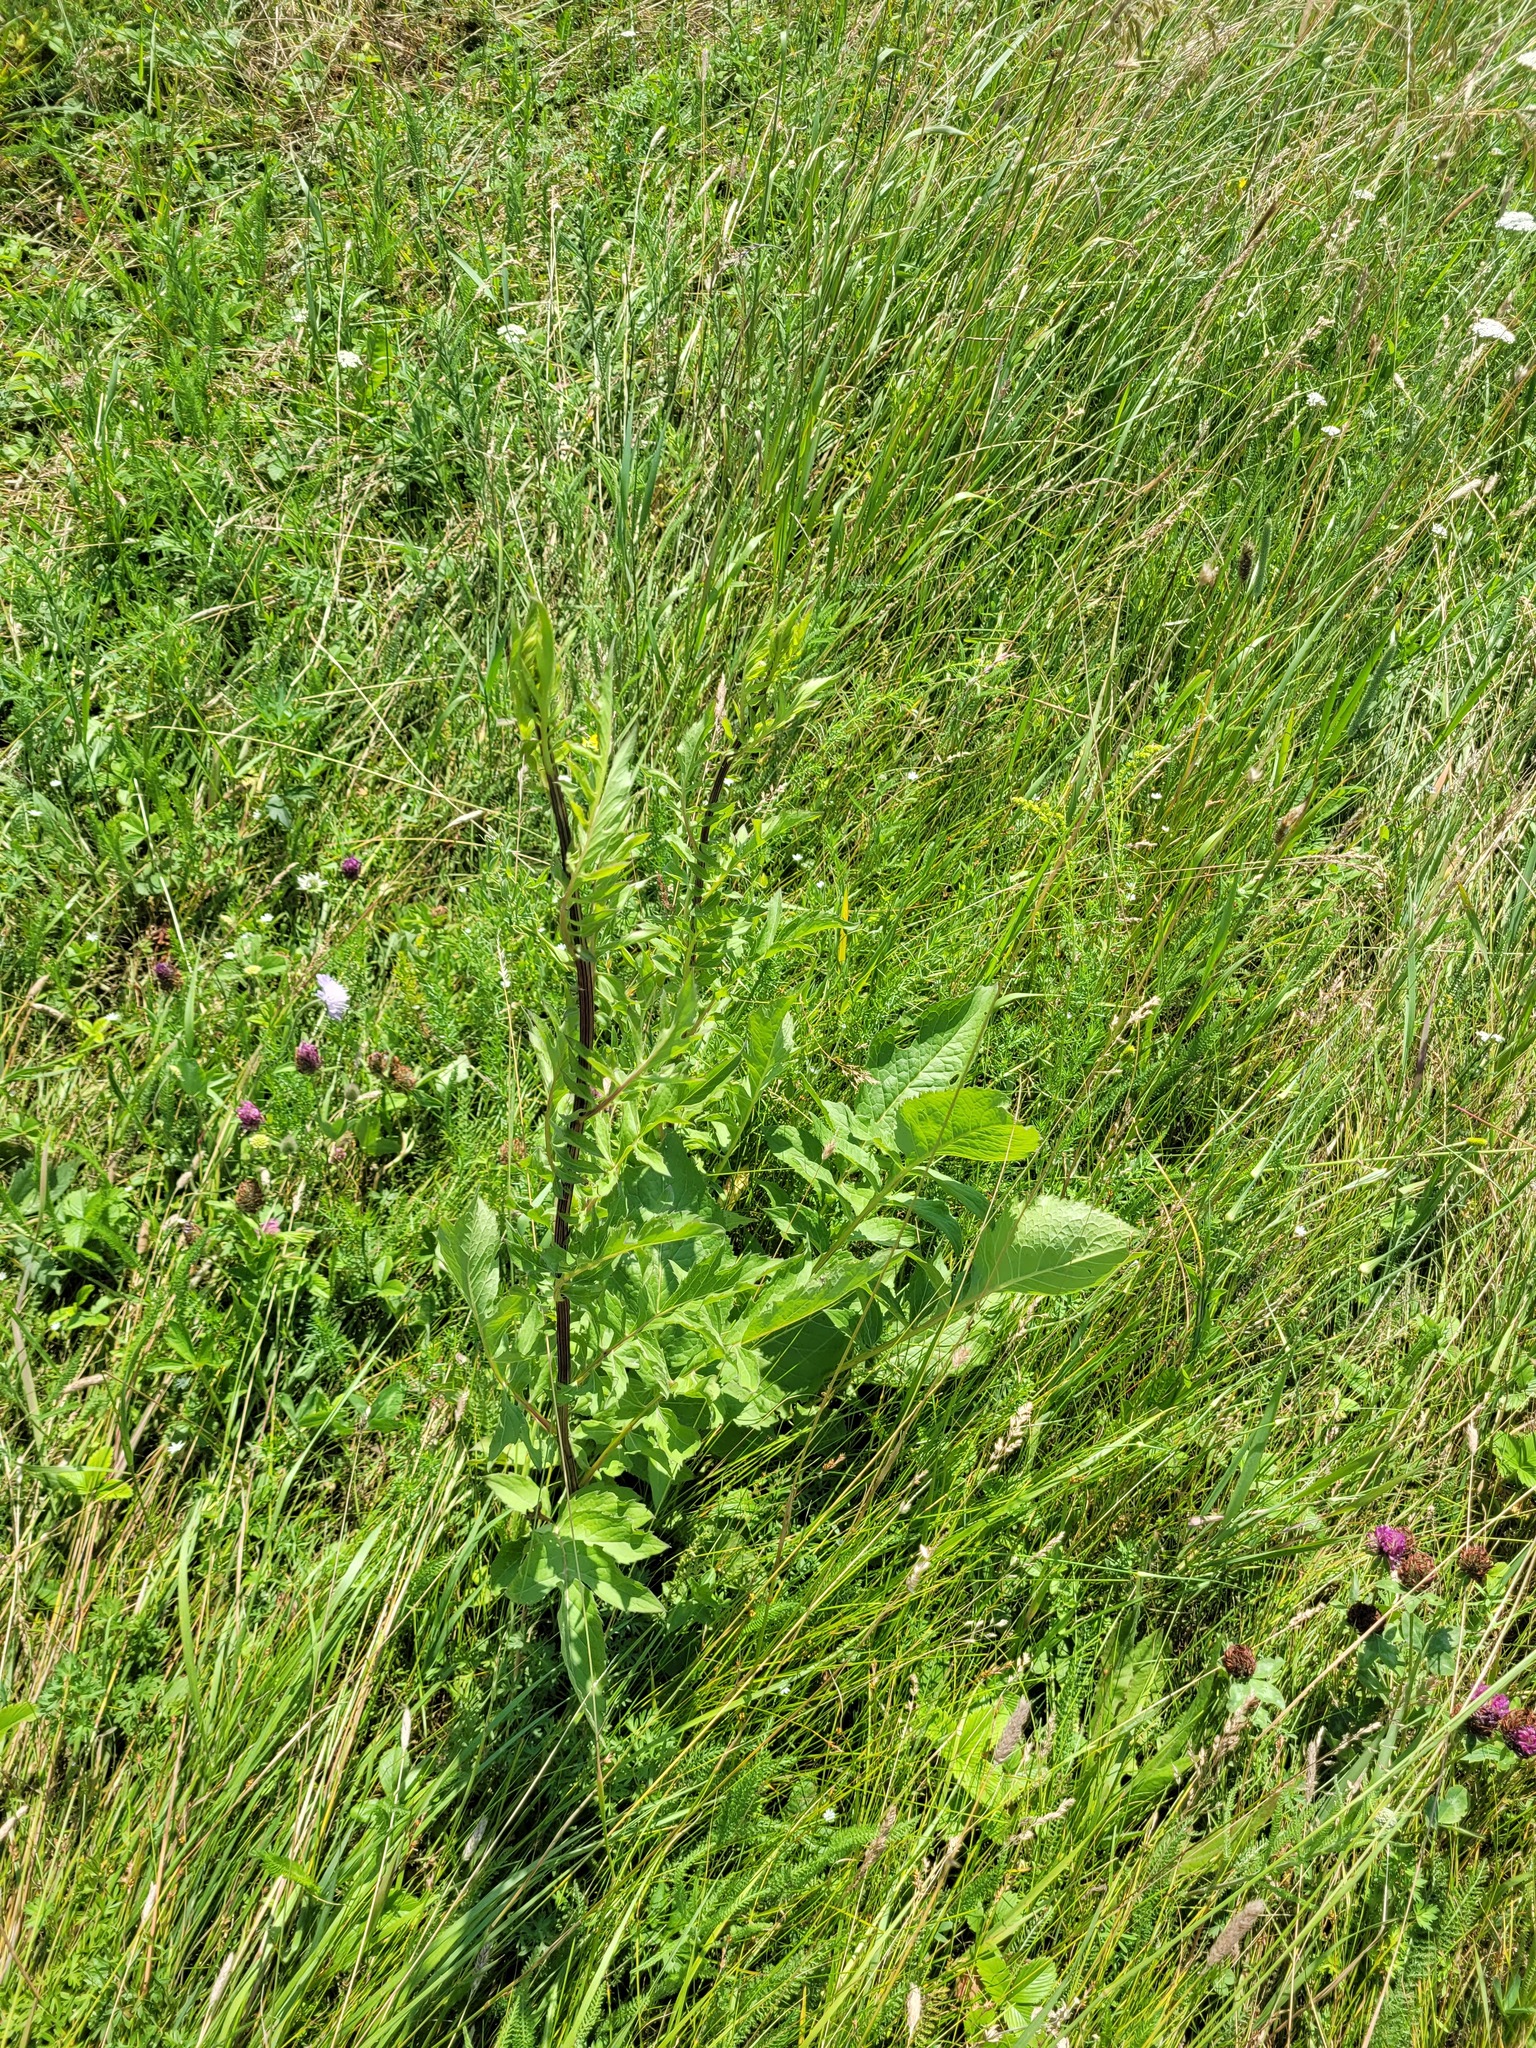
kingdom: Plantae
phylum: Tracheophyta
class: Magnoliopsida
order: Asterales
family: Asteraceae
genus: Serratula
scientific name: Serratula coronata
